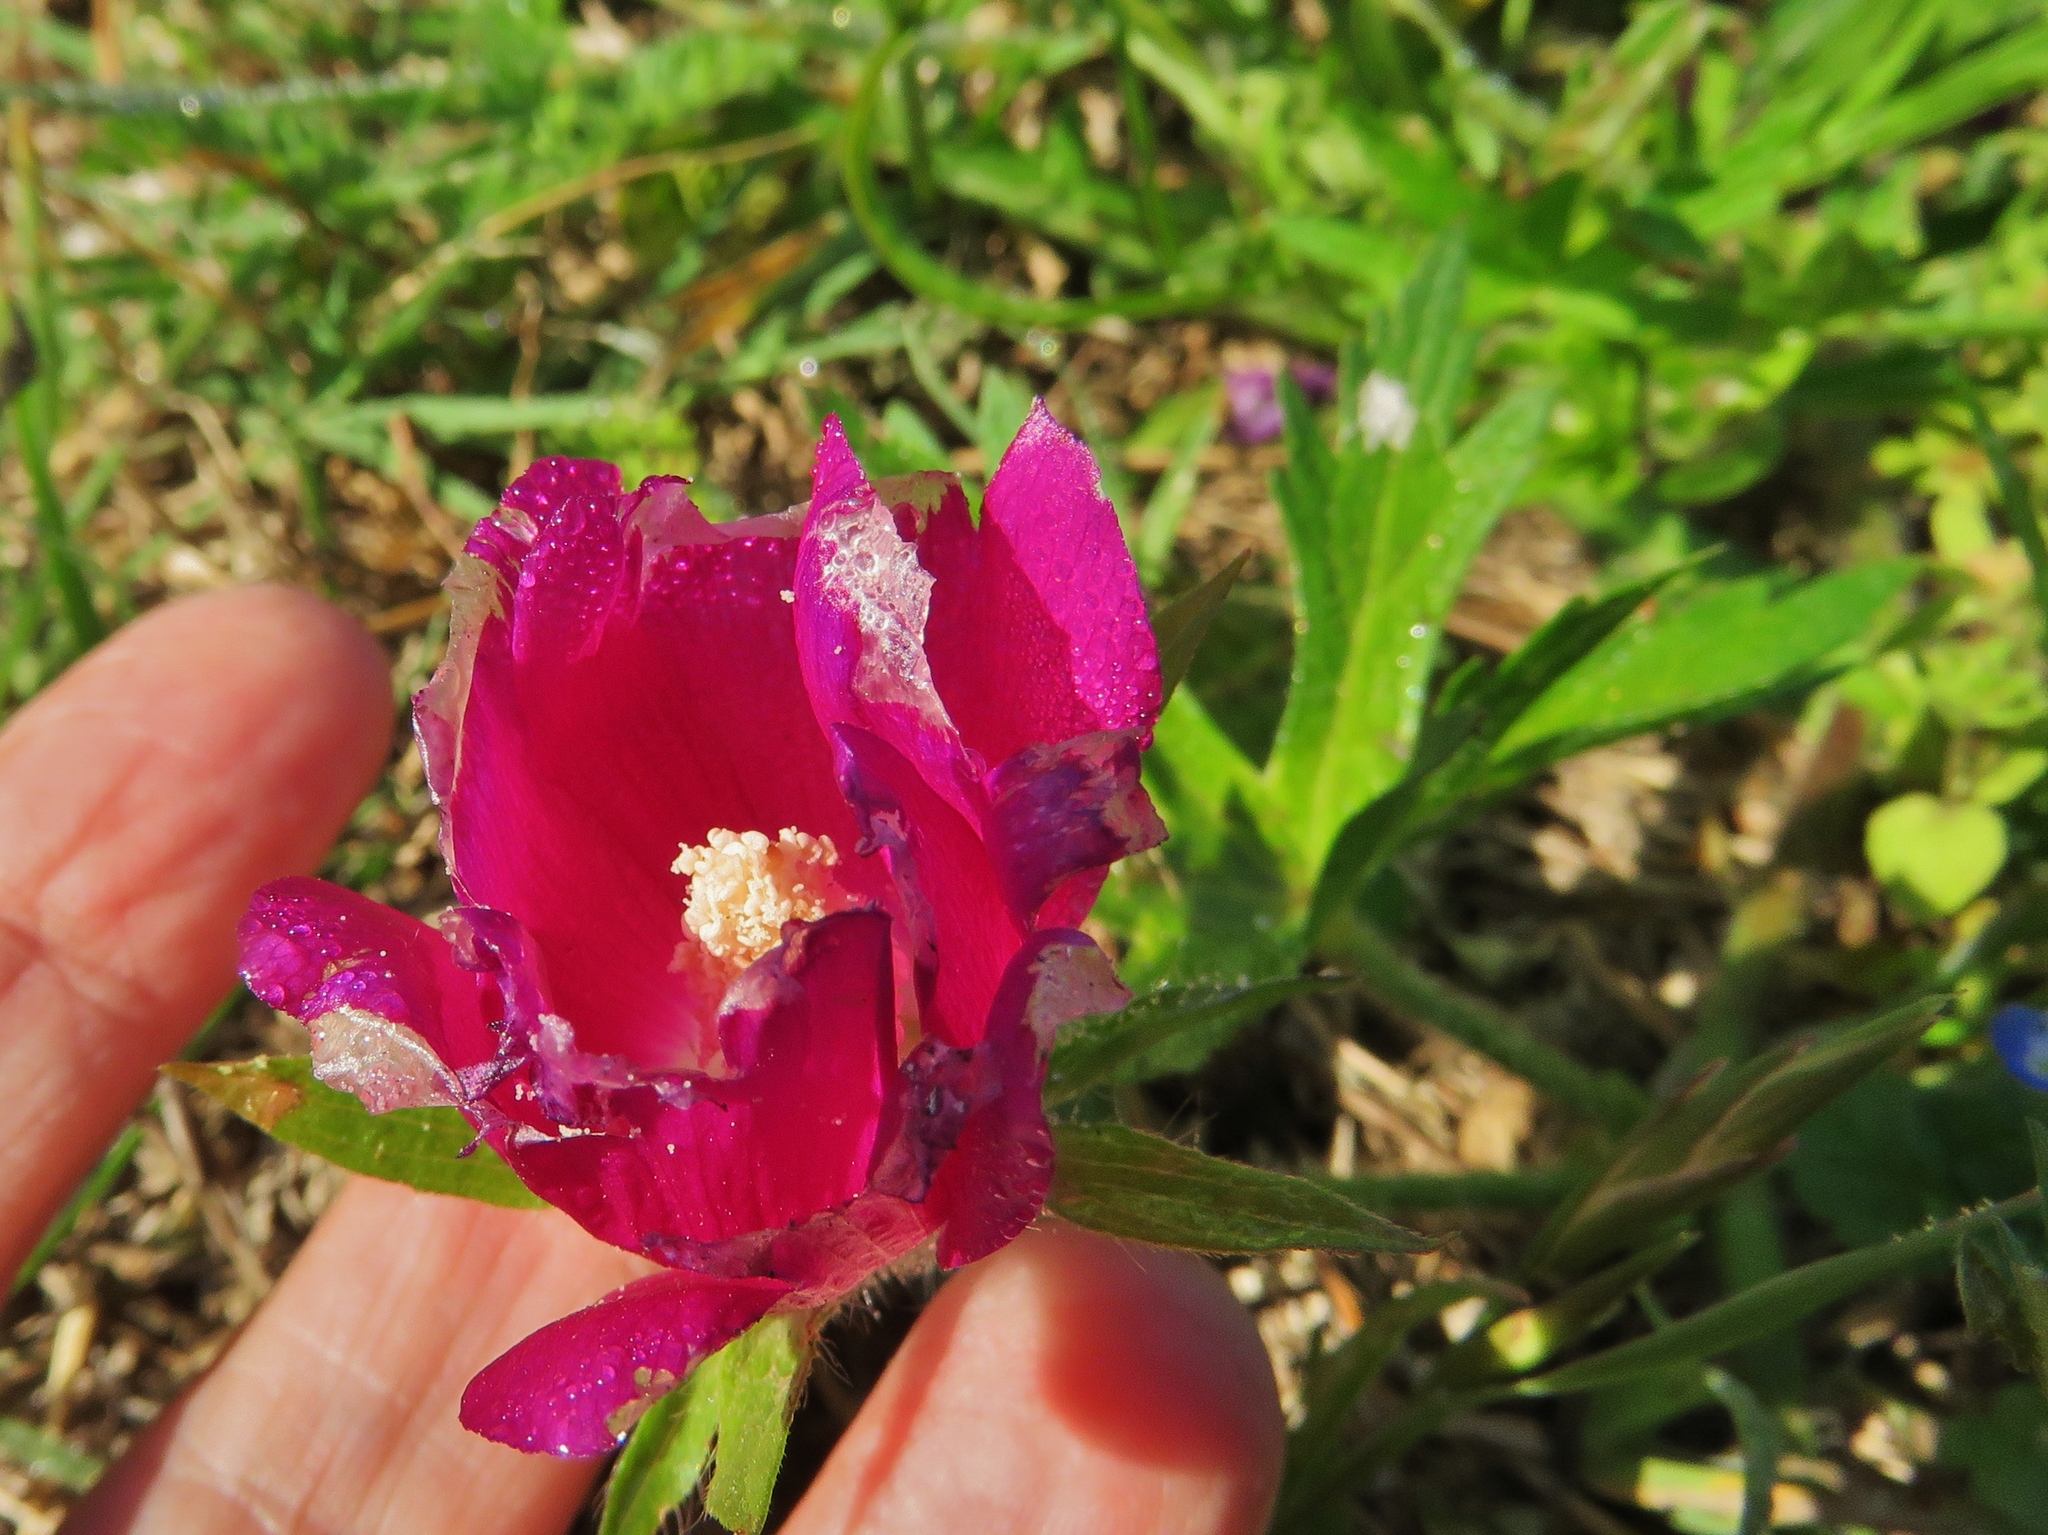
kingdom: Plantae
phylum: Tracheophyta
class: Magnoliopsida
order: Malvales
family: Malvaceae
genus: Callirhoe
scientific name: Callirhoe involucrata
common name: Purple poppy-mallow
